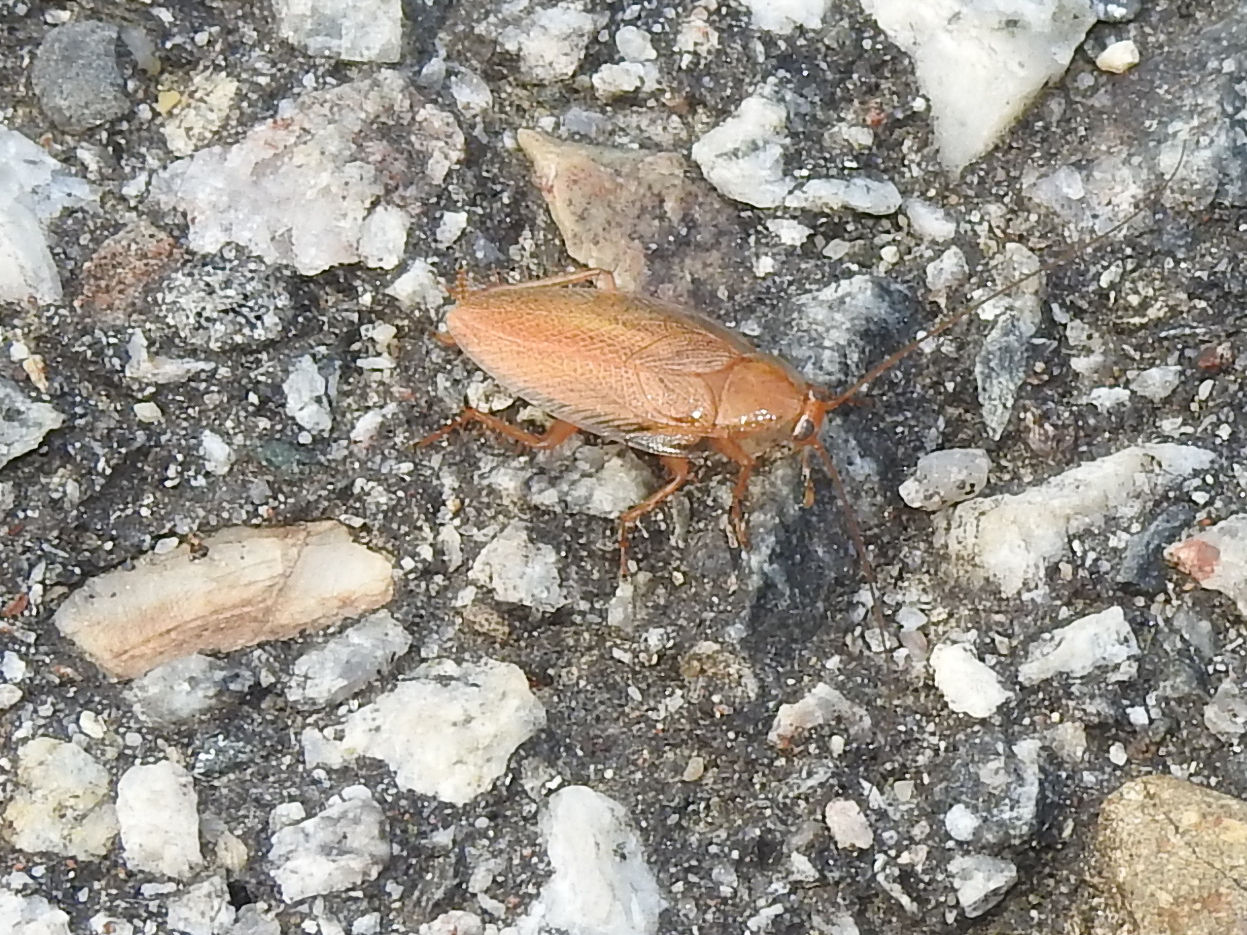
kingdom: Animalia
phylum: Arthropoda
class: Insecta
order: Blattodea
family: Ectobiidae
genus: Ectobius
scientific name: Ectobius pallidus
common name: Tawny cockroach
